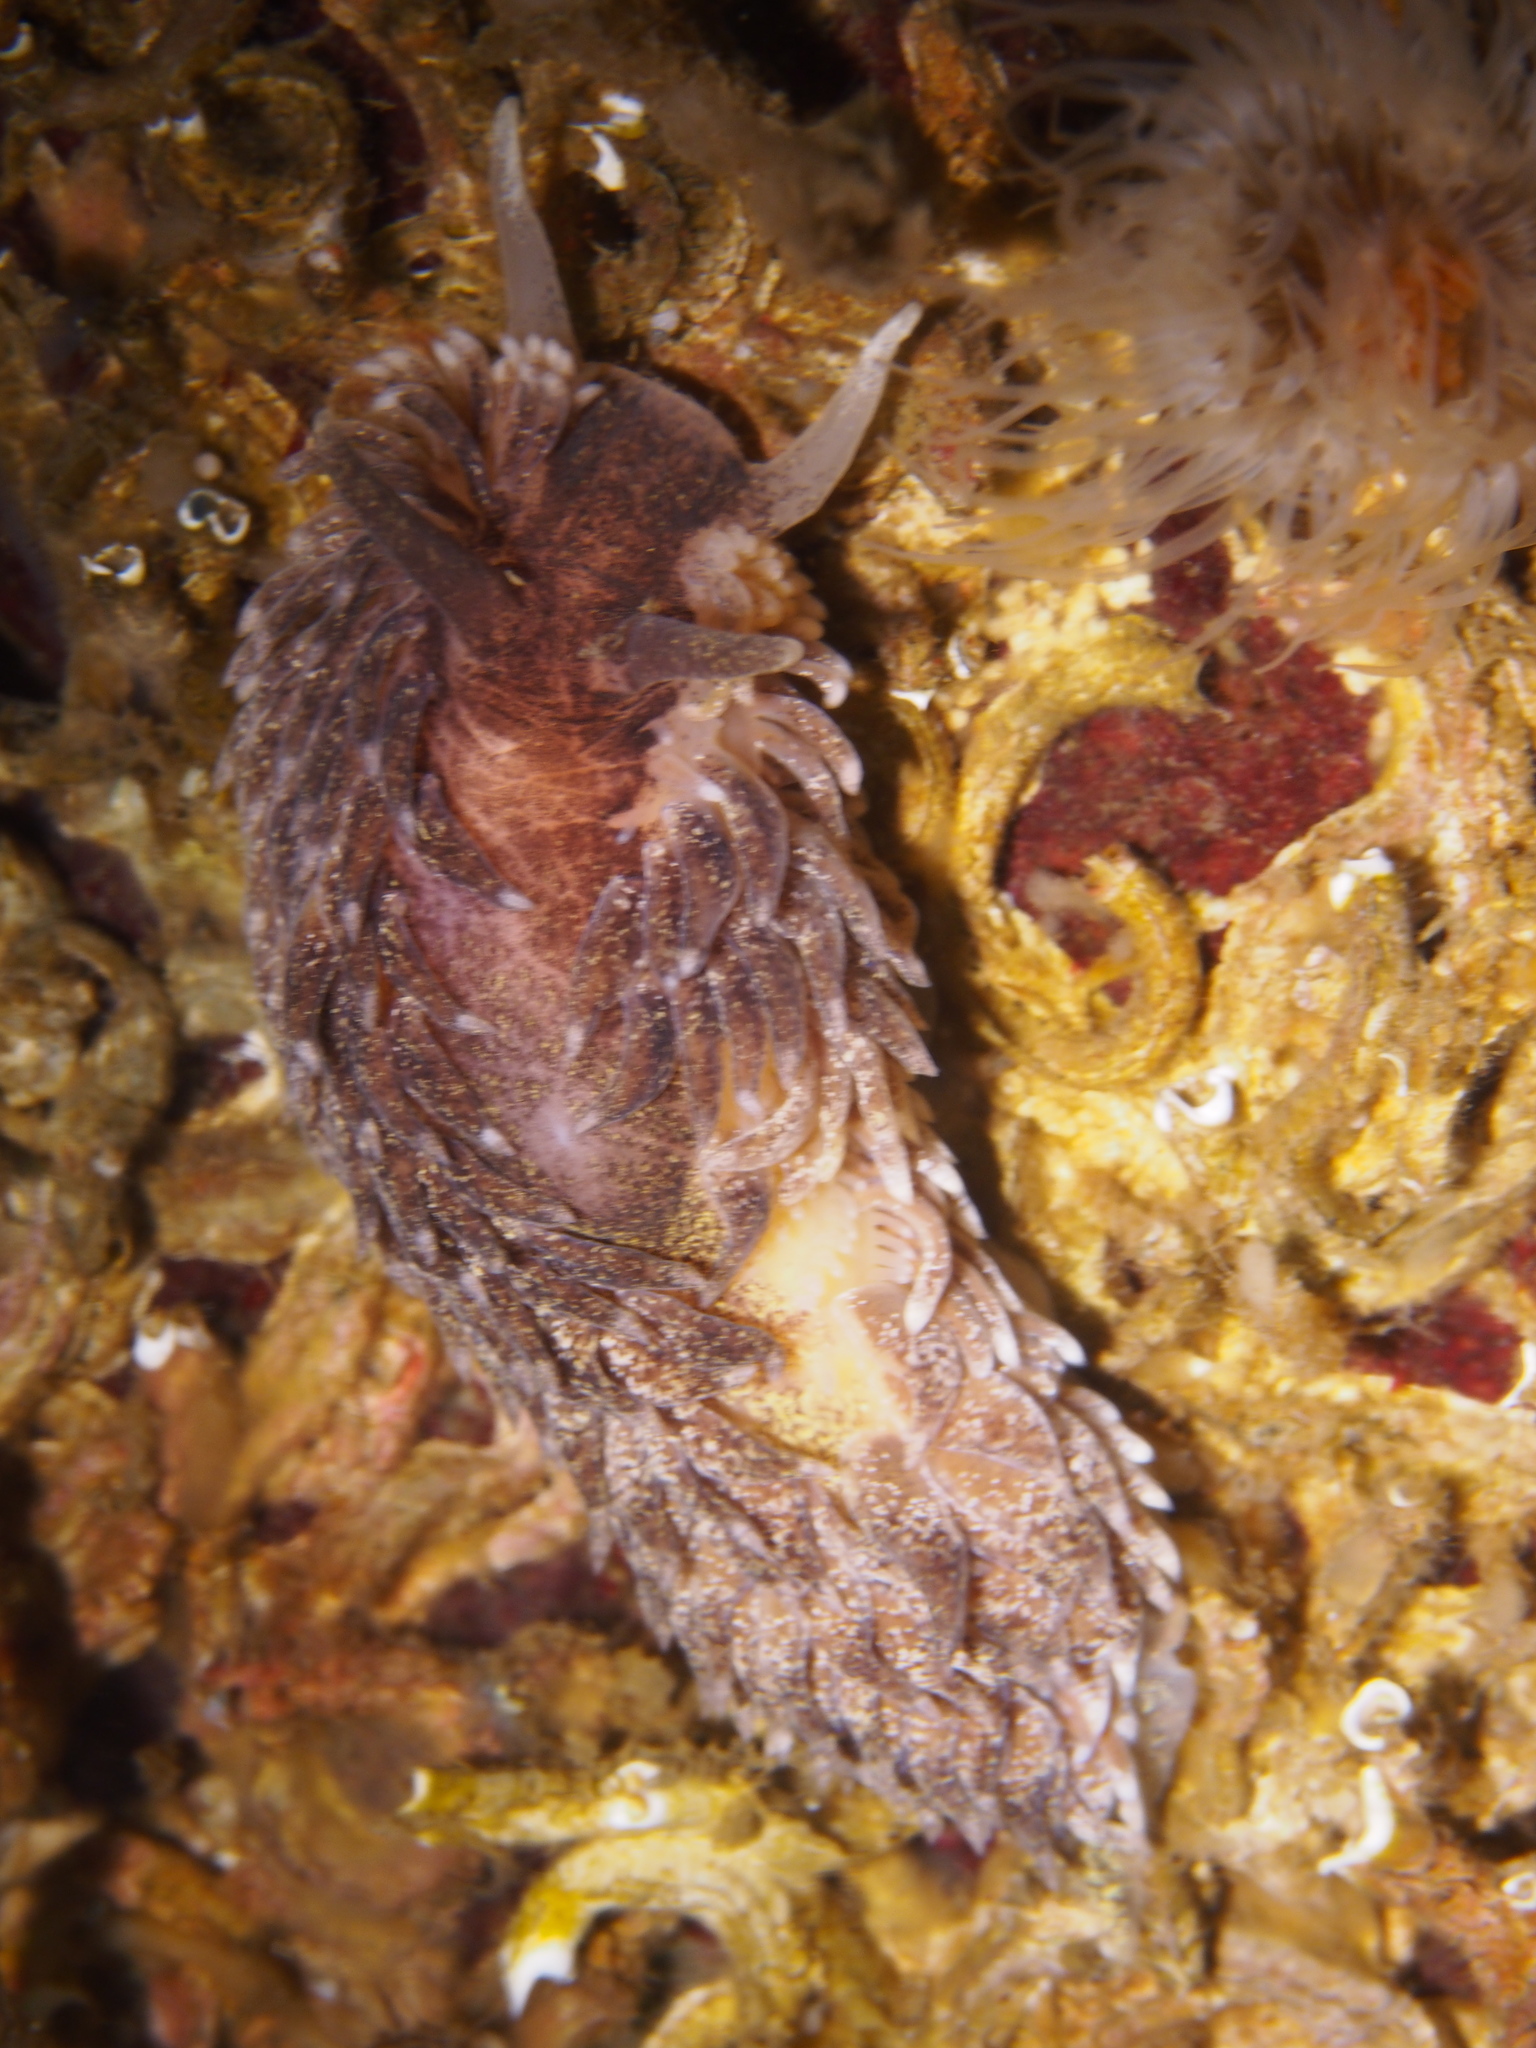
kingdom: Animalia
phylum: Mollusca
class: Gastropoda
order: Nudibranchia
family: Aeolidiidae
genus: Aeolidia
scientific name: Aeolidia papillosa
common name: Common grey sea slug
